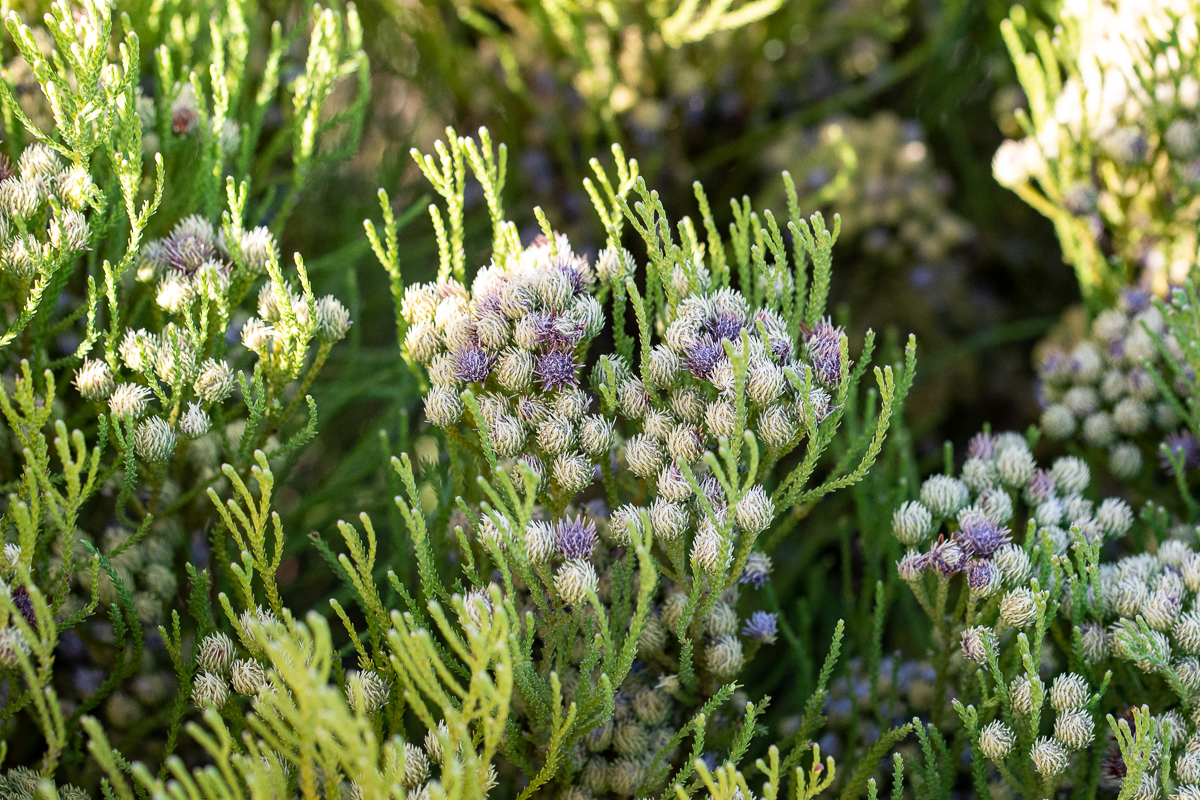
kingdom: Plantae
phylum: Tracheophyta
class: Magnoliopsida
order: Bruniales
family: Bruniaceae
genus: Brunia
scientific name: Brunia paleacea
